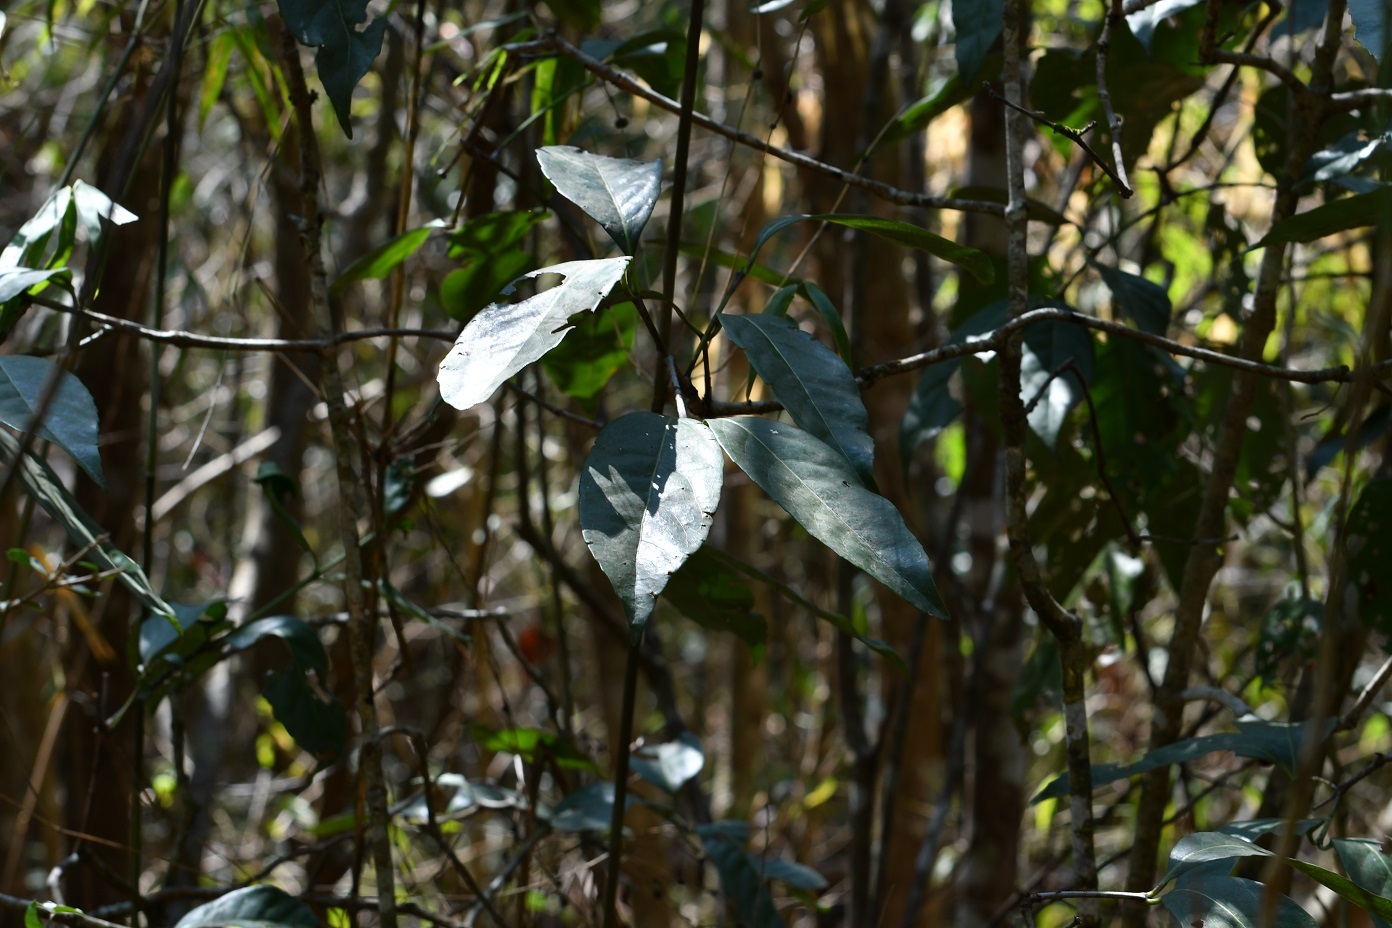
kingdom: Plantae
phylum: Tracheophyta
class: Magnoliopsida
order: Caryophyllales
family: Polygonaceae
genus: Coccoloba
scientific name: Coccoloba floresii
